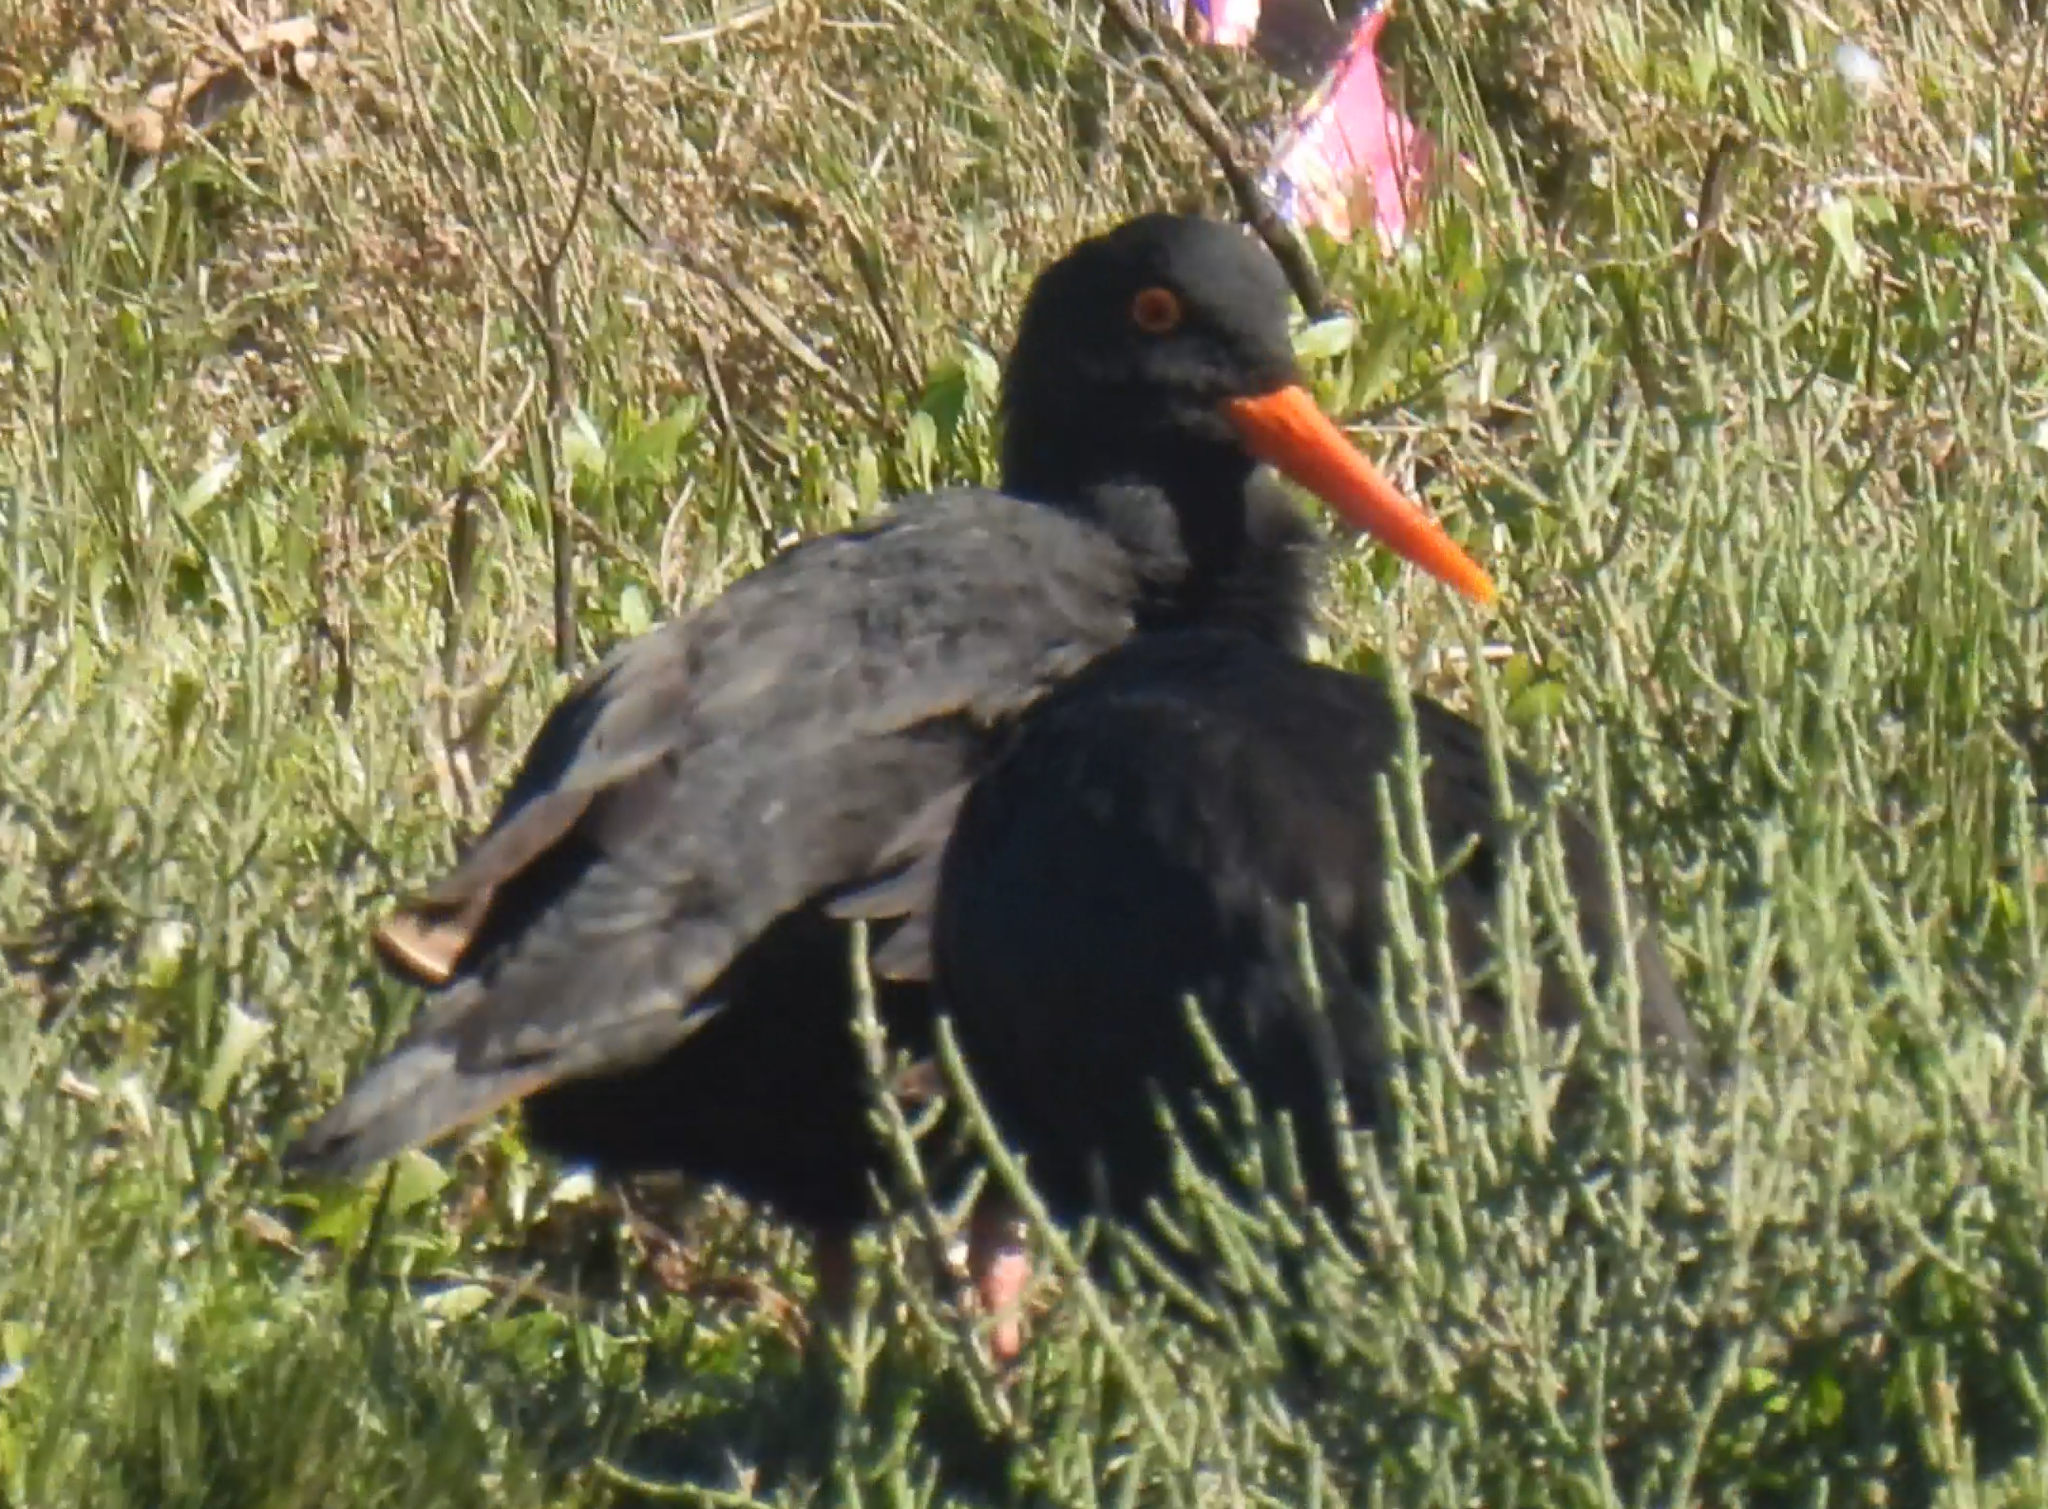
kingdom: Animalia
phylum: Chordata
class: Aves
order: Charadriiformes
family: Haematopodidae
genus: Haematopus
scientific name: Haematopus moquini
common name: African oystercatcher
